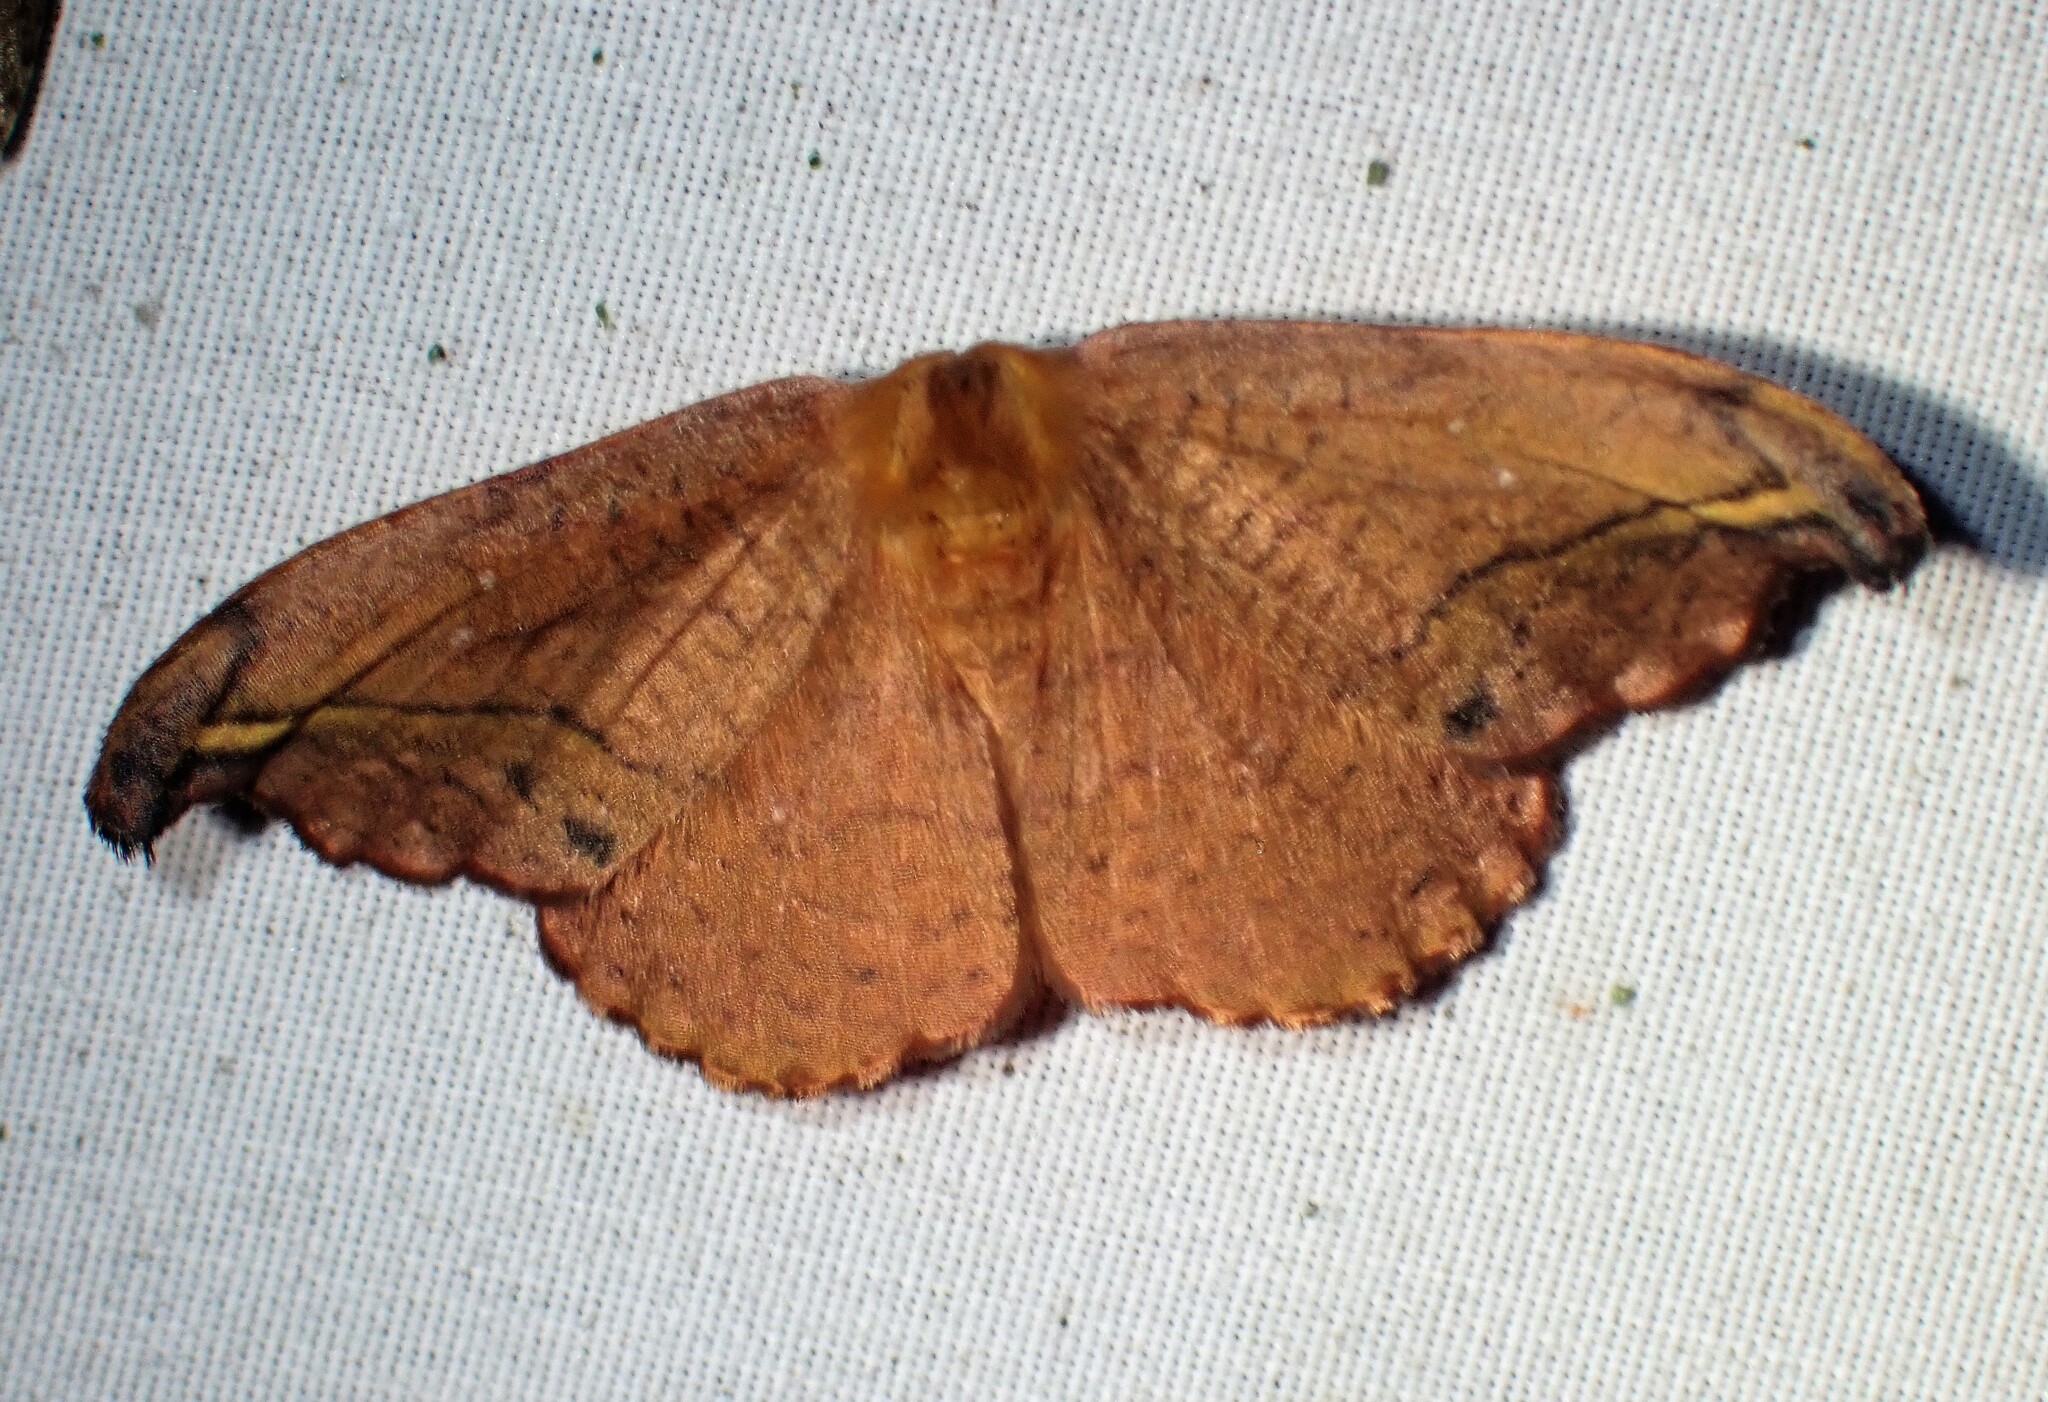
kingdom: Animalia
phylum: Arthropoda
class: Insecta
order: Lepidoptera
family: Drepanidae
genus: Oreta
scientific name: Oreta rosea
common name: Rose hooktip
